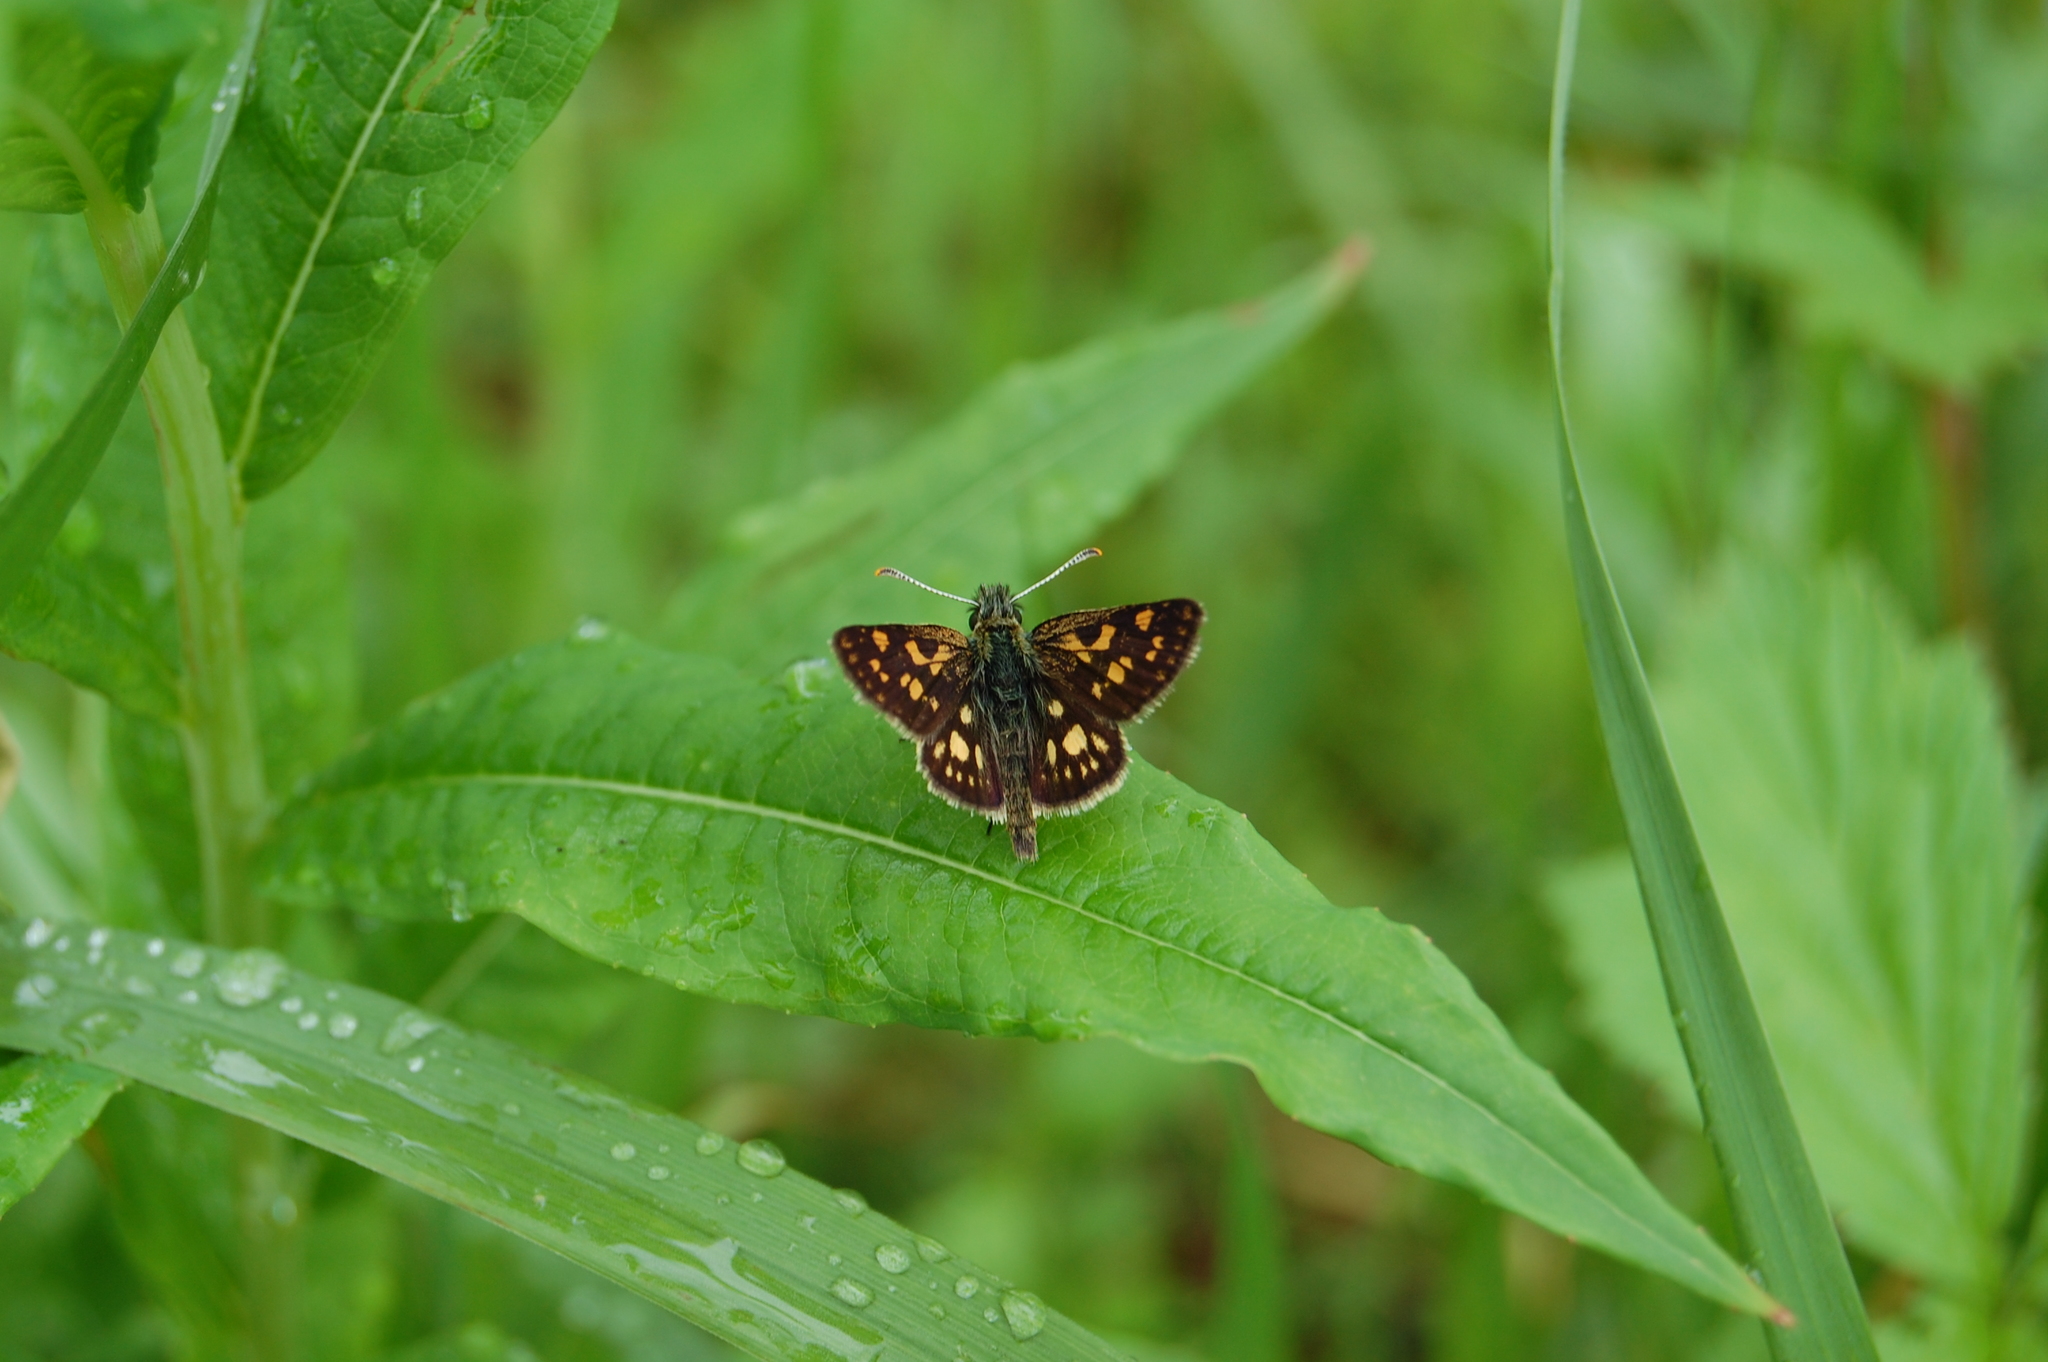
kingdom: Animalia
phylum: Arthropoda
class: Insecta
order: Lepidoptera
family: Hesperiidae
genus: Carterocephalus
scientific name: Carterocephalus palaemon
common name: Chequered skipper
